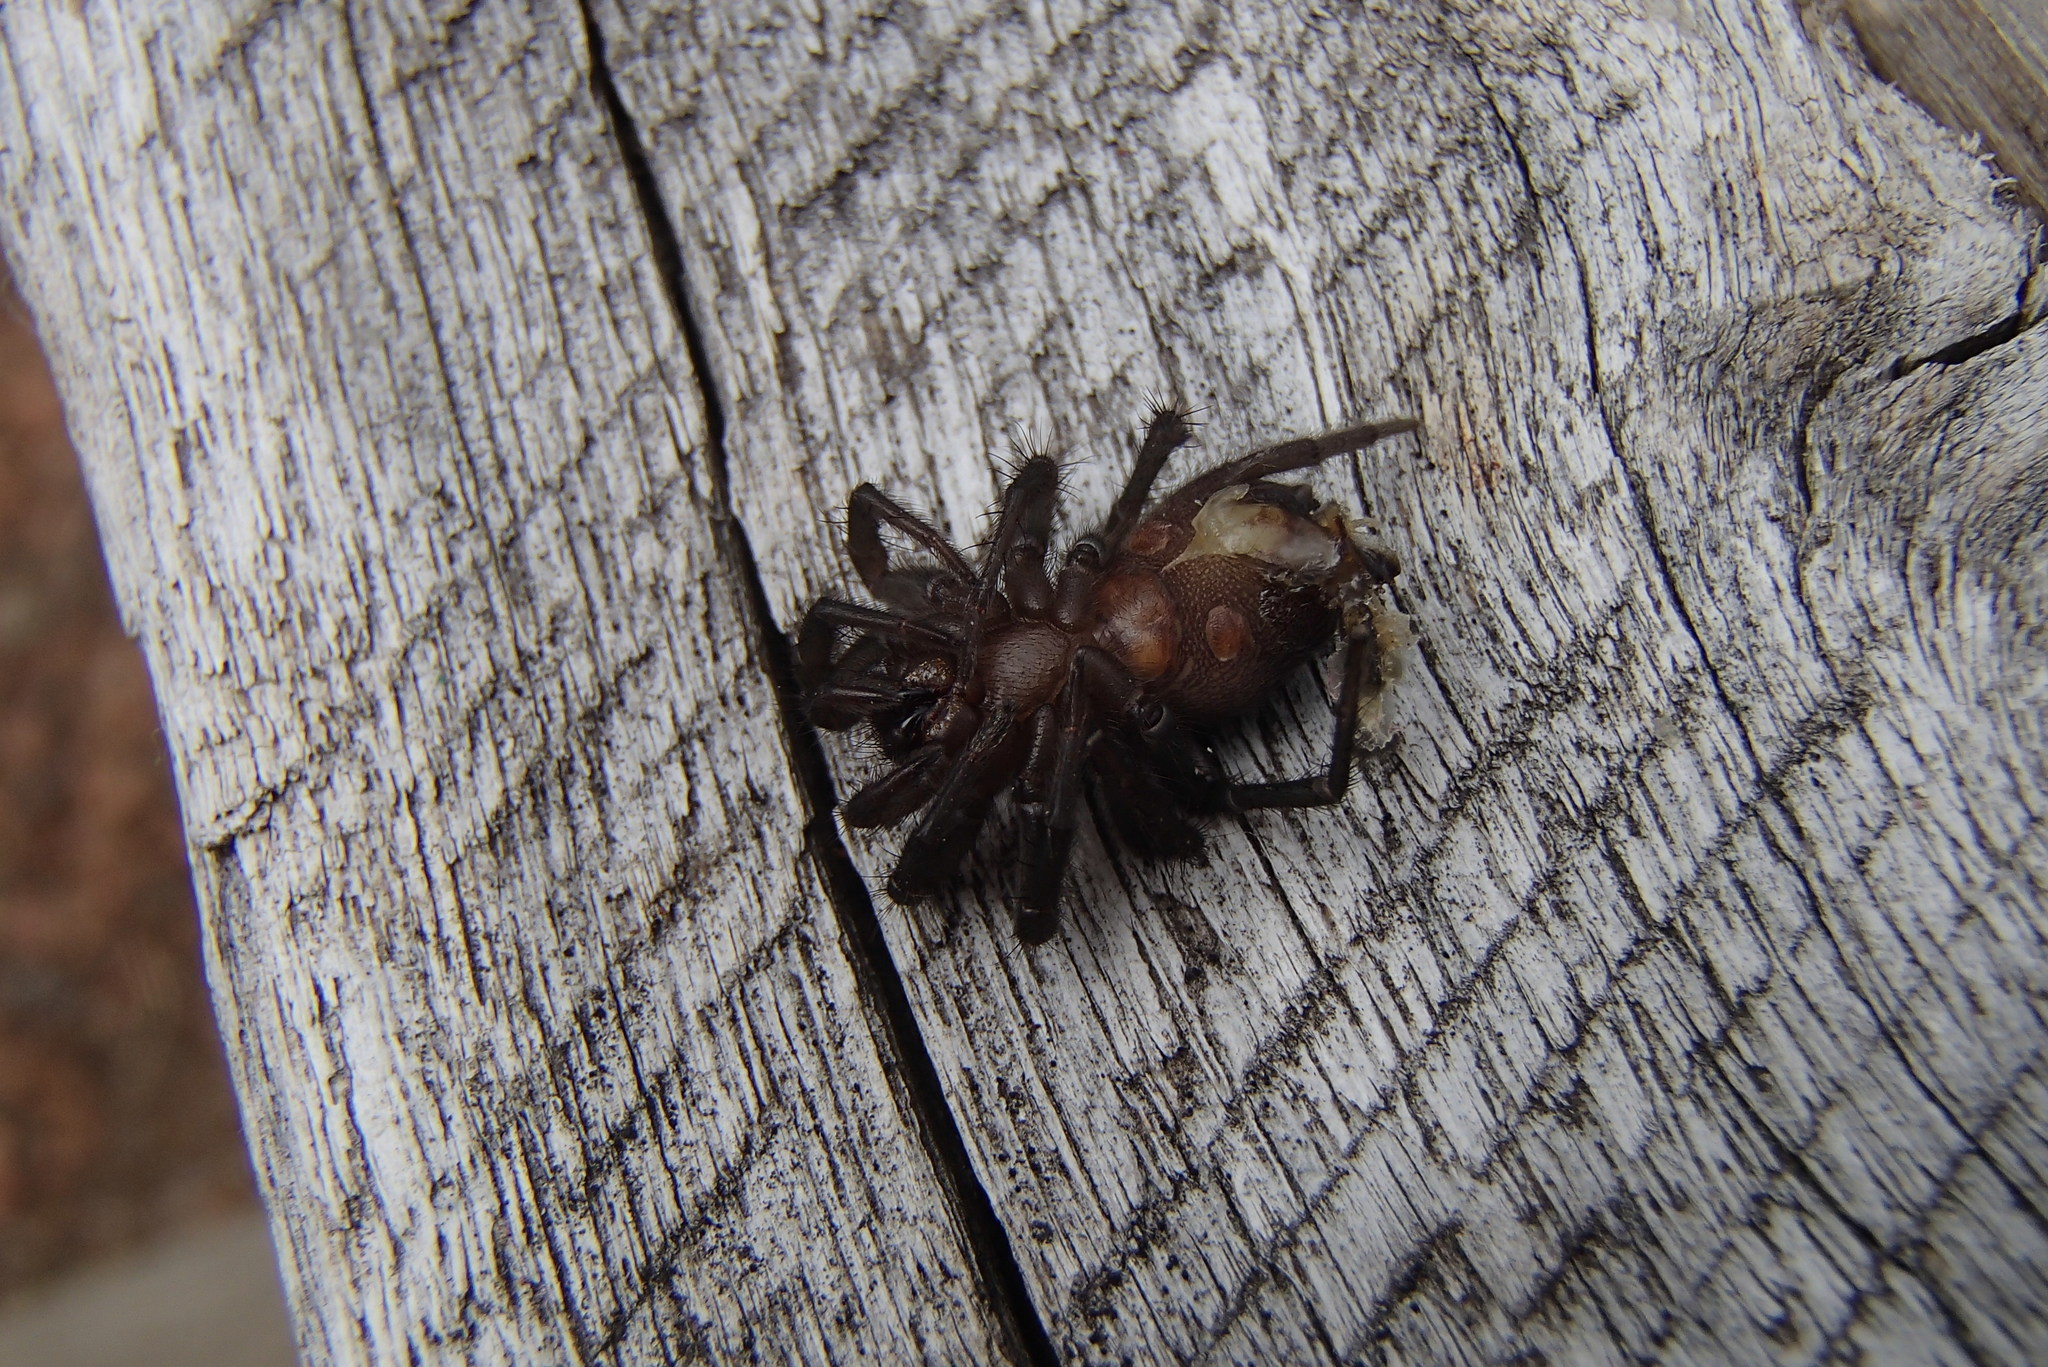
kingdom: Animalia
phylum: Arthropoda
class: Arachnida
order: Araneae
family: Euagridae
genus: Namirea
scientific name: Namirea fallax
